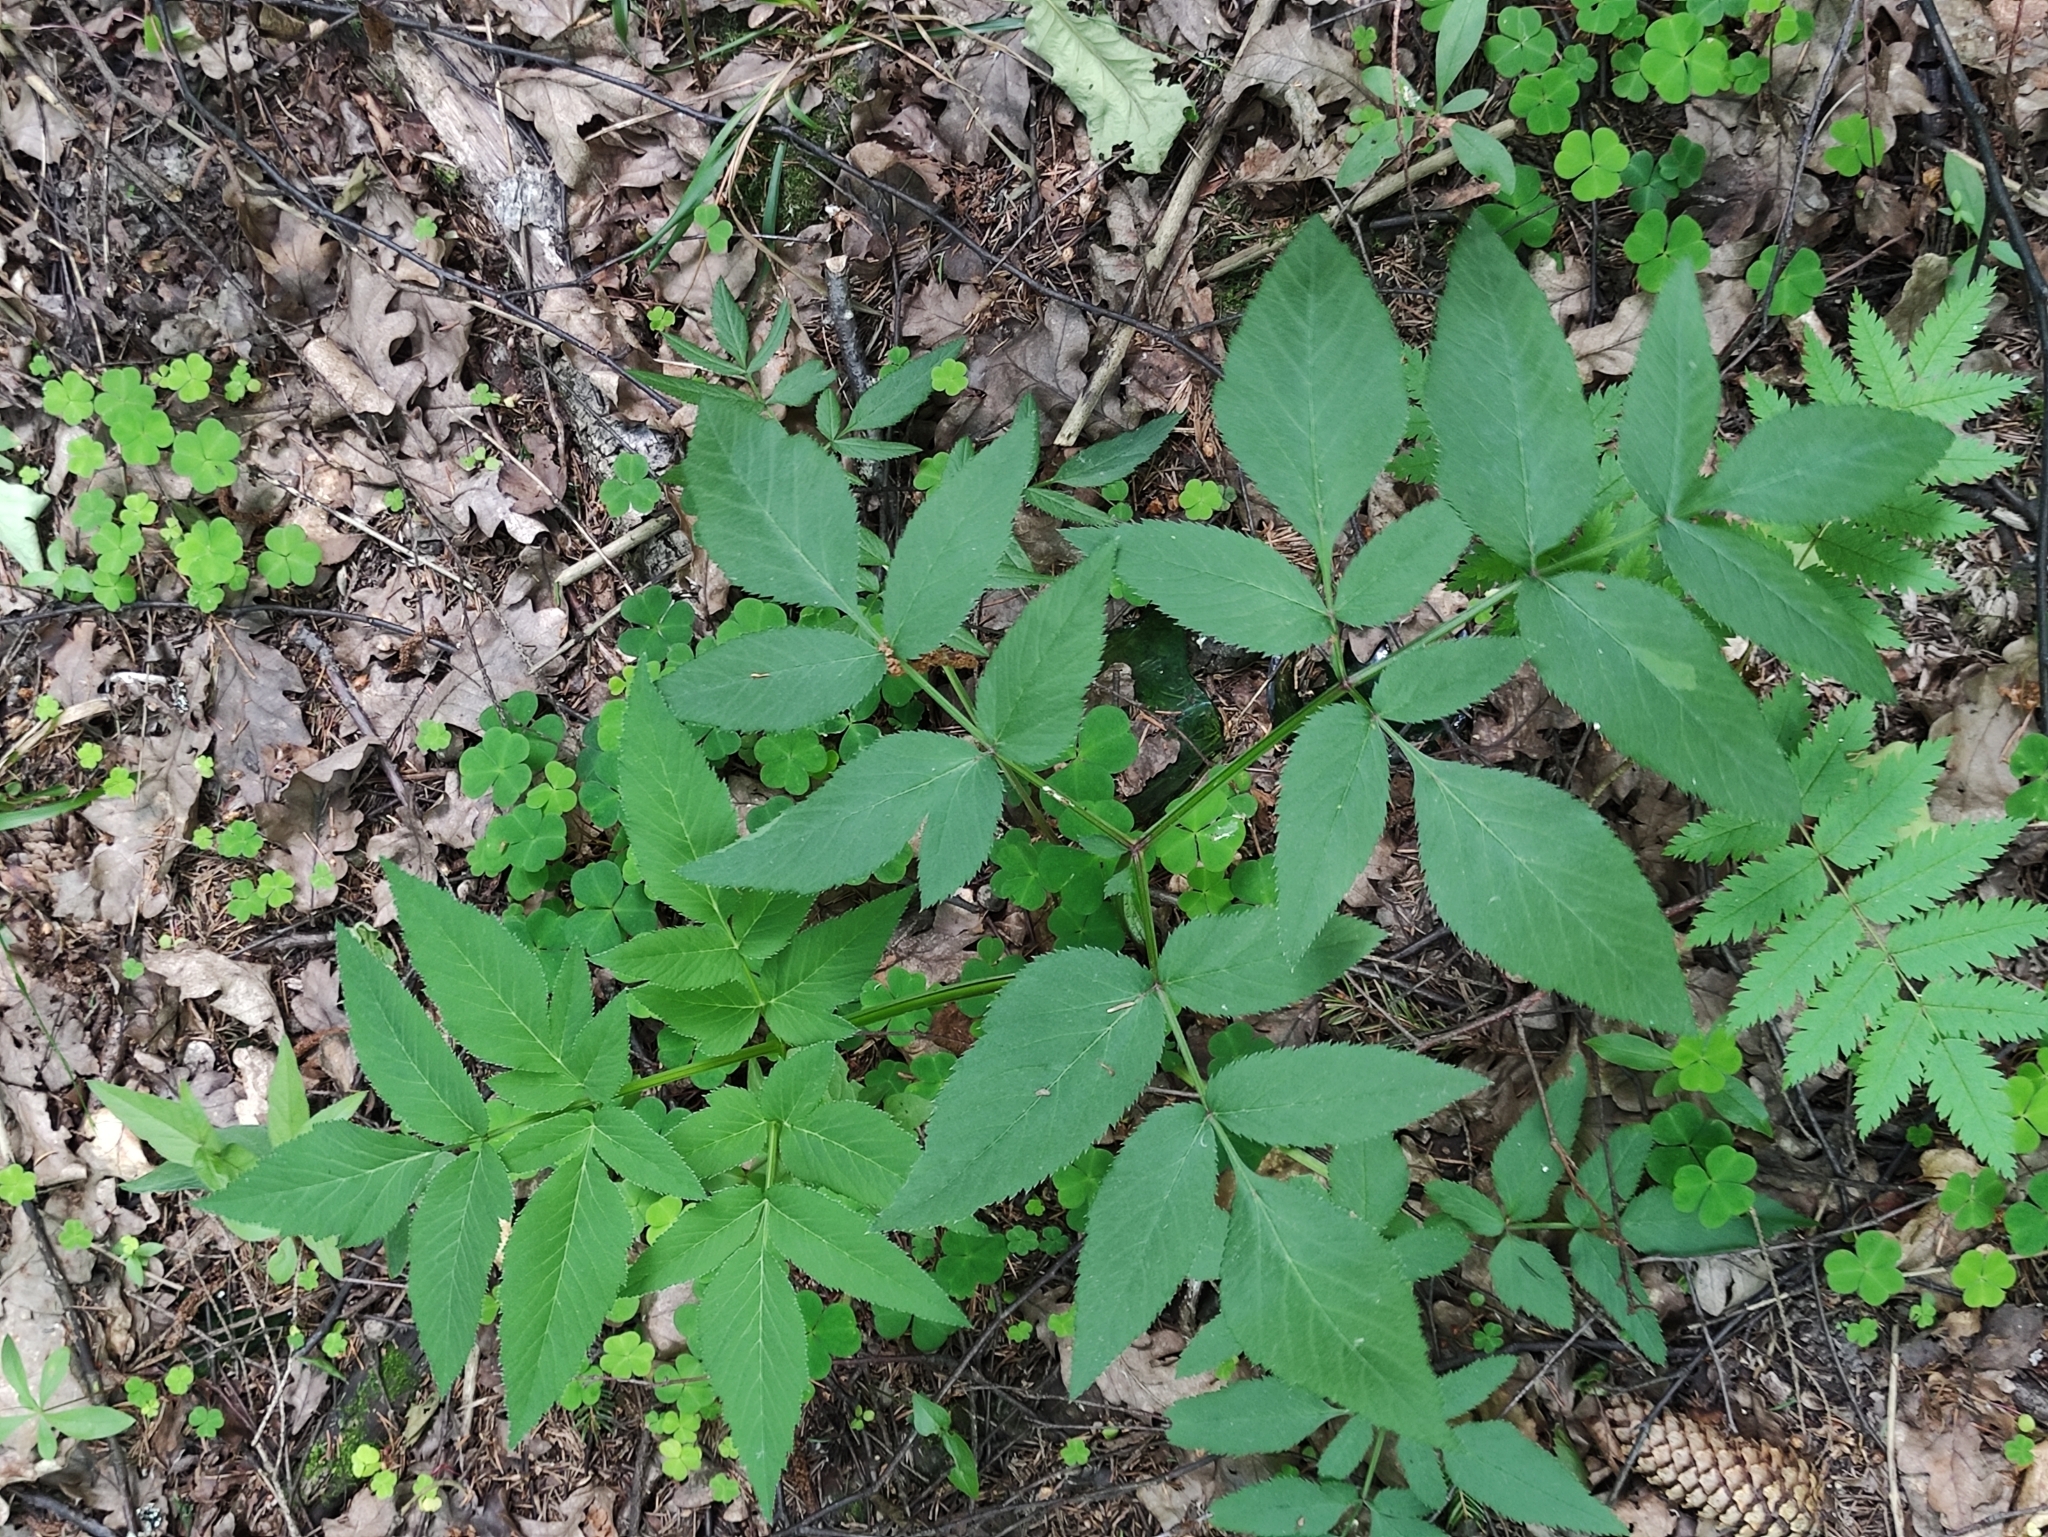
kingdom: Plantae
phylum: Tracheophyta
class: Magnoliopsida
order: Apiales
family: Apiaceae
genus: Angelica
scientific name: Angelica sylvestris
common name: Wild angelica
